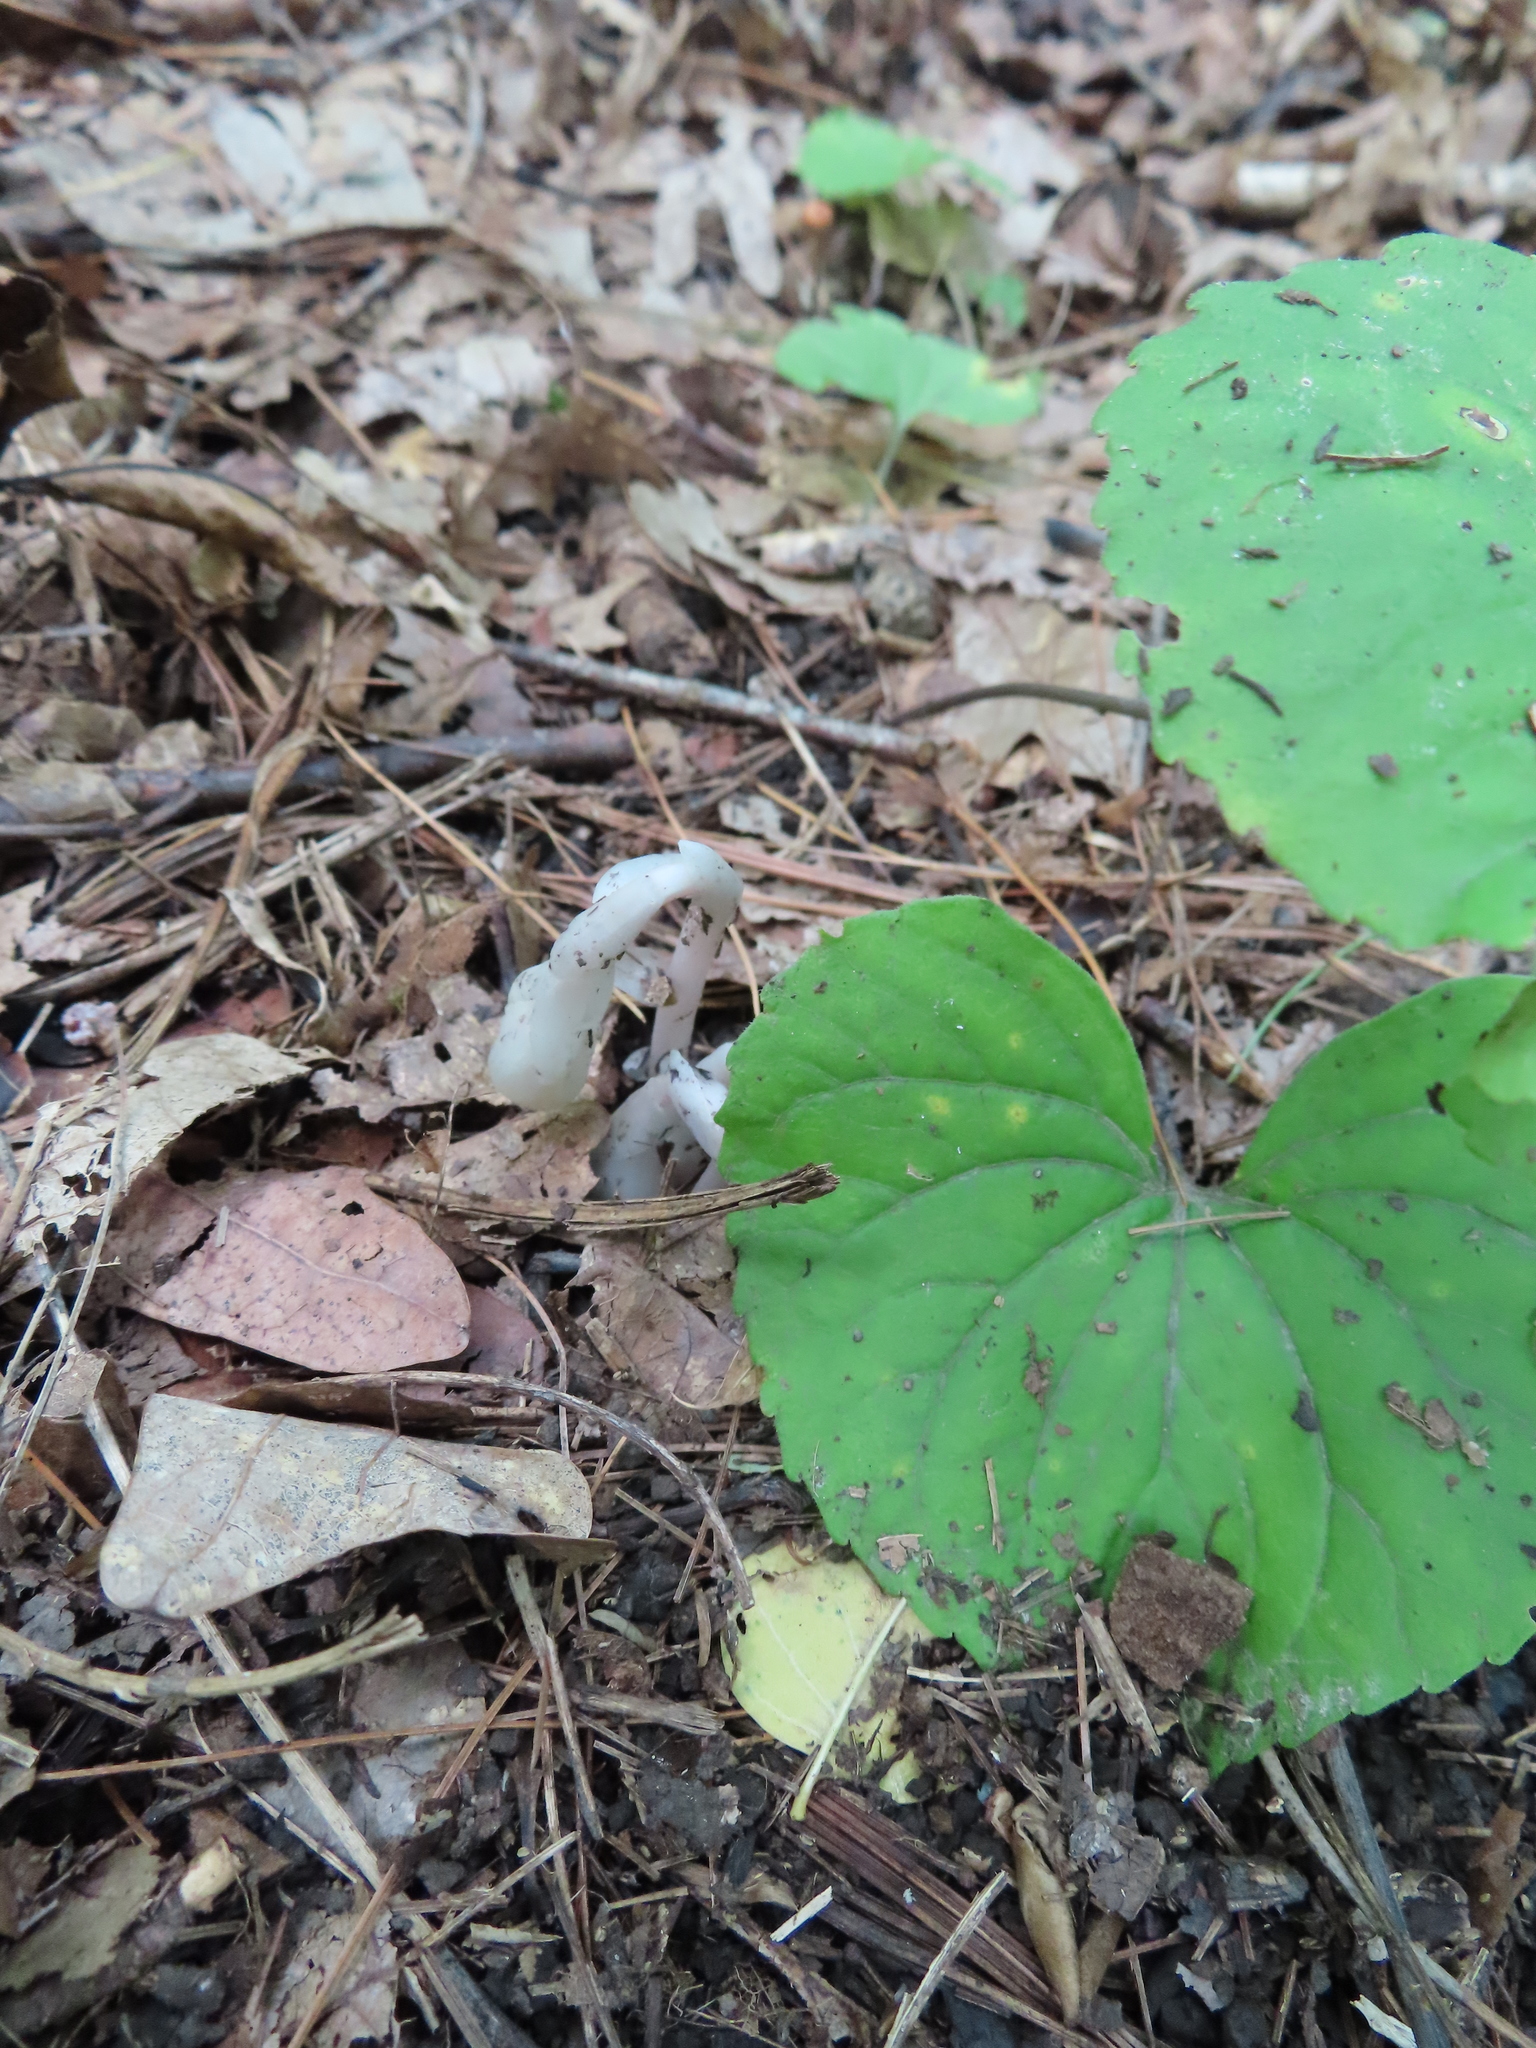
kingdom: Plantae
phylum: Tracheophyta
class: Magnoliopsida
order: Ericales
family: Ericaceae
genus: Monotropa
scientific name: Monotropa uniflora
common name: Convulsion root
